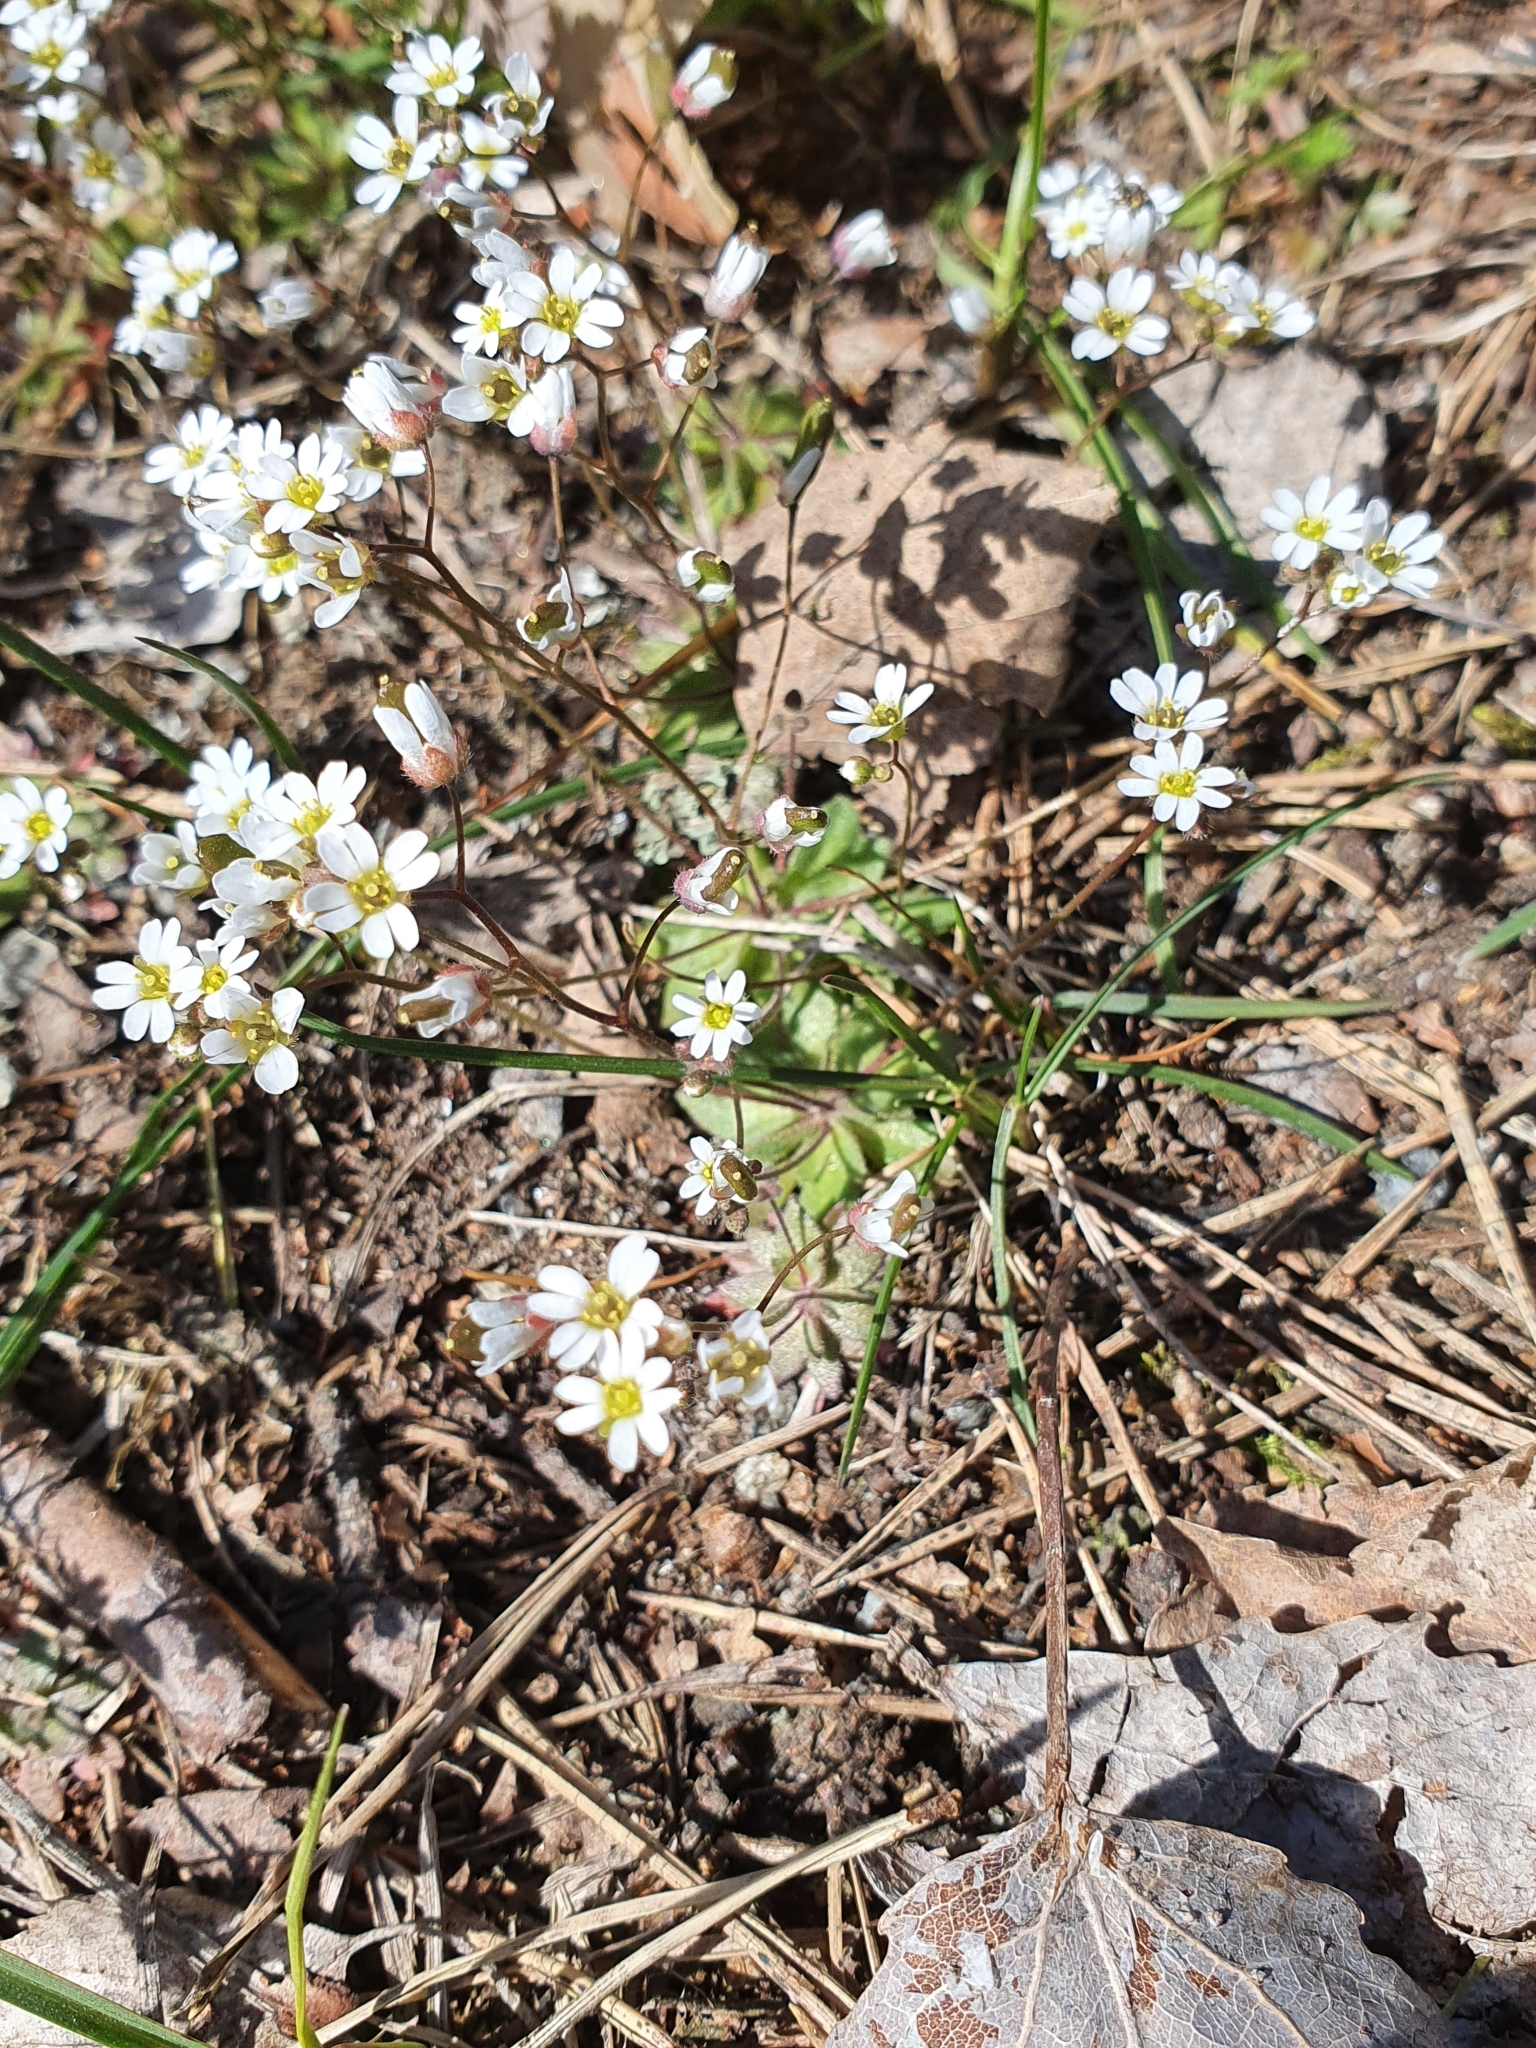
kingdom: Plantae
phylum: Tracheophyta
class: Magnoliopsida
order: Brassicales
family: Brassicaceae
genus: Draba
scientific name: Draba verna
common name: Spring draba
